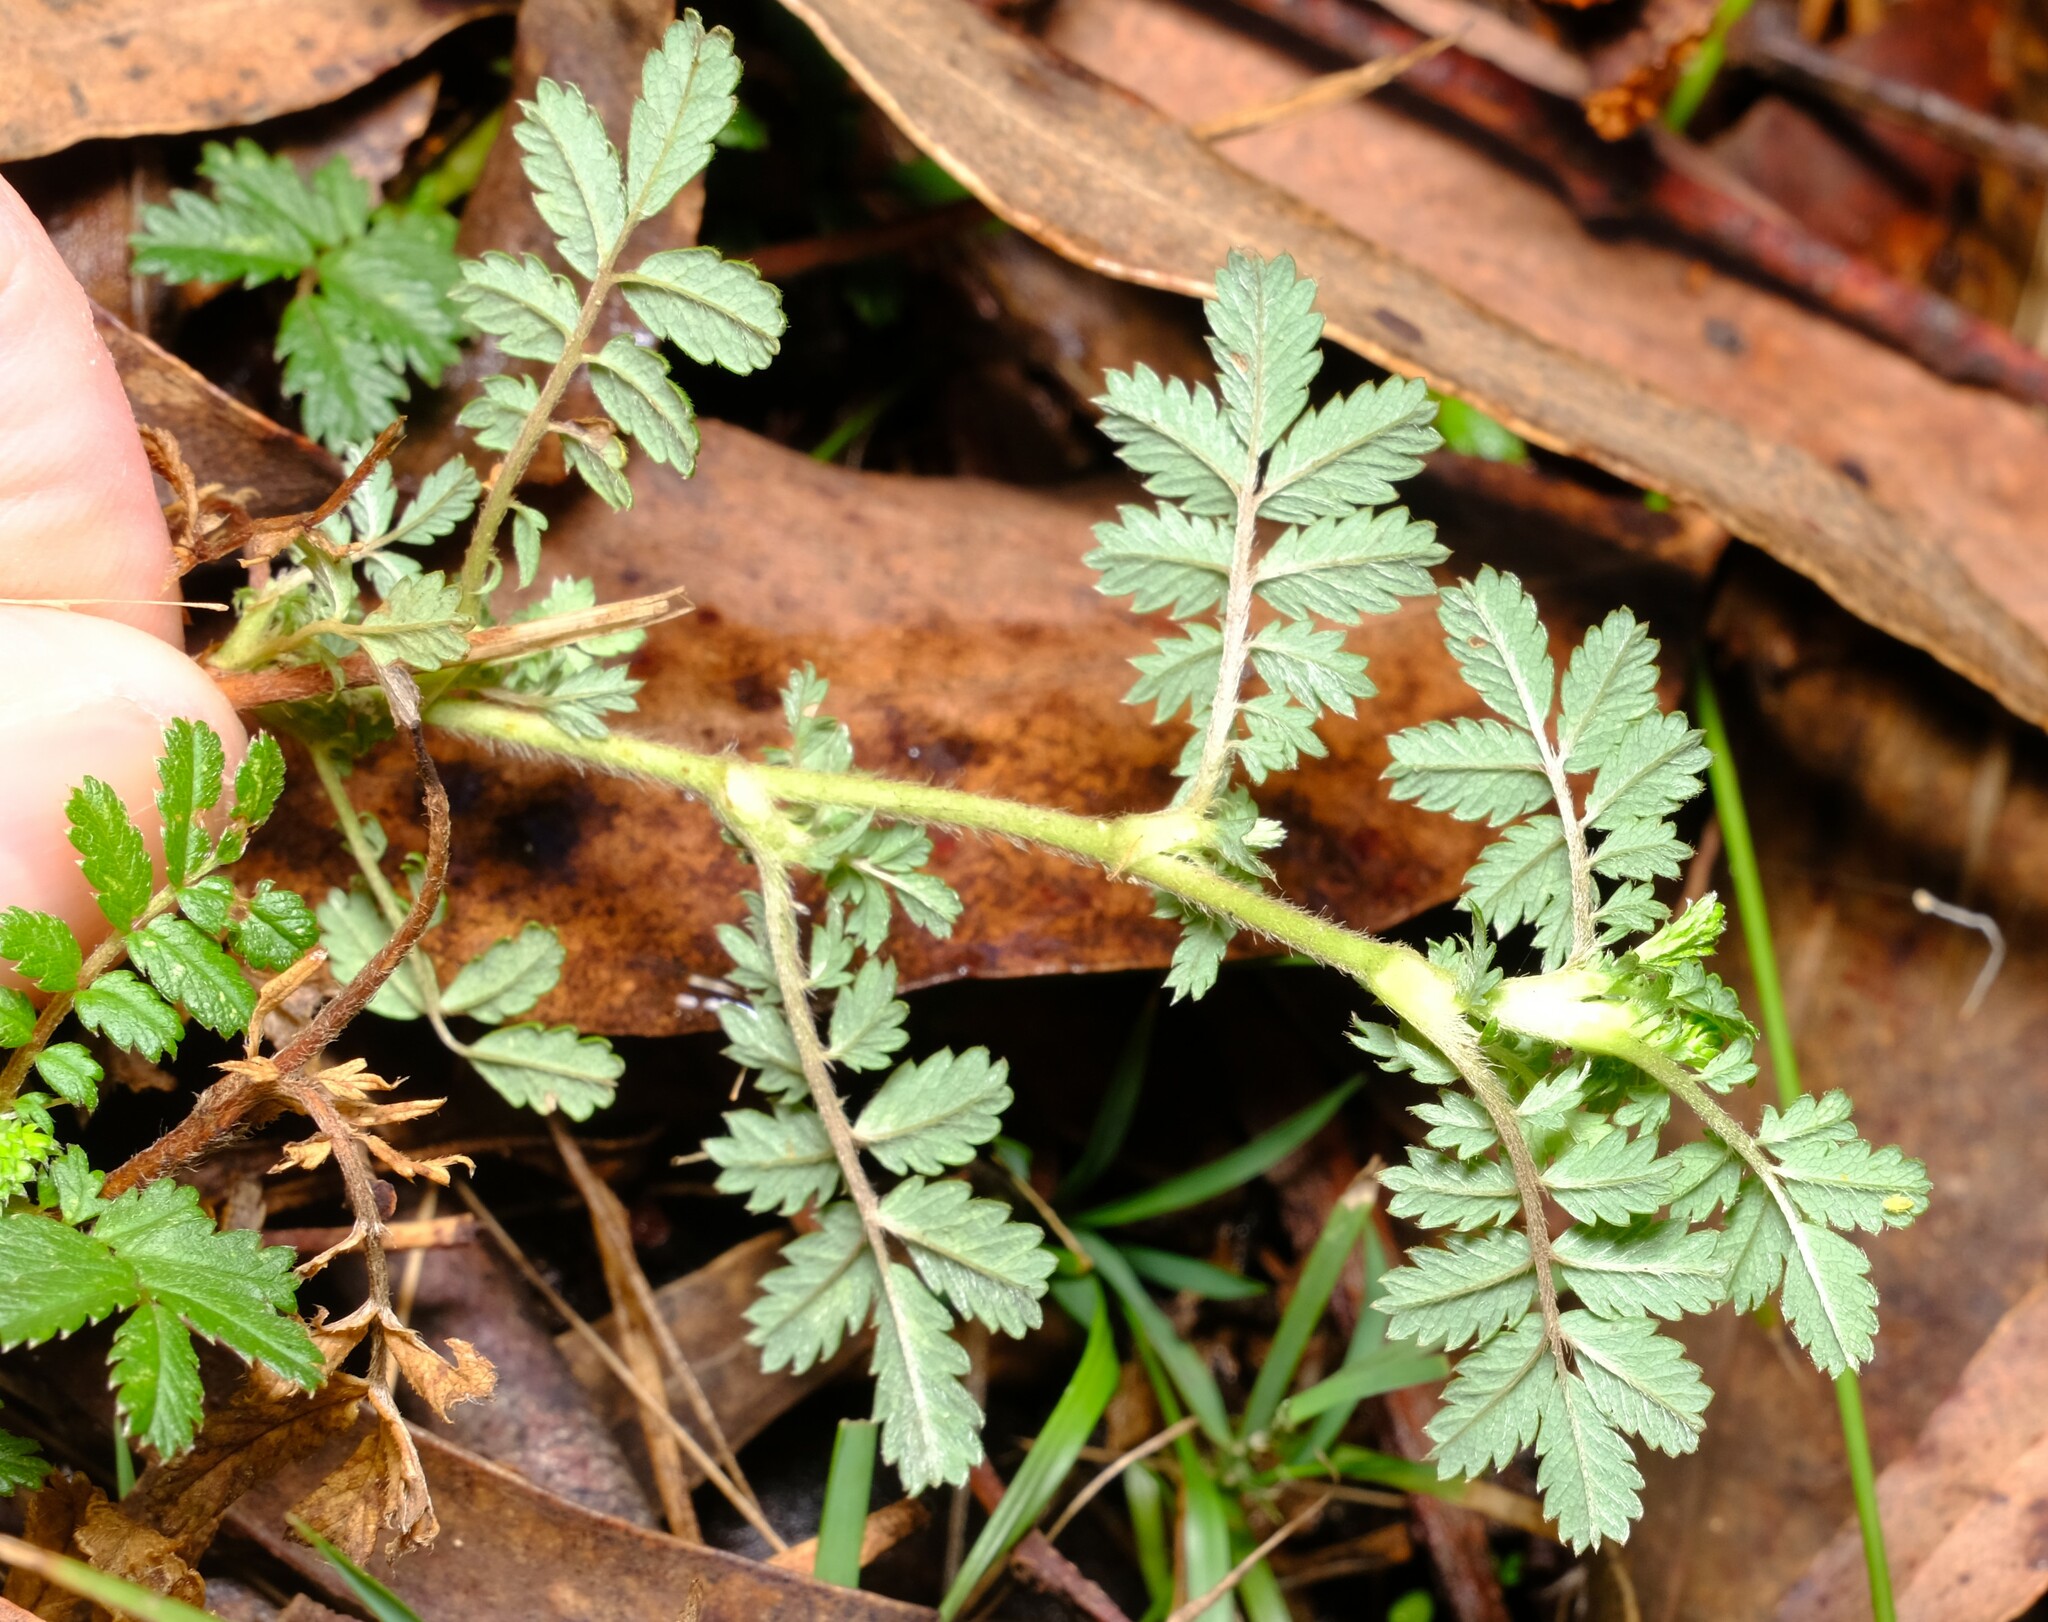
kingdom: Plantae
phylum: Tracheophyta
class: Magnoliopsida
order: Rosales
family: Rosaceae
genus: Acaena
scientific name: Acaena novae-zelandiae
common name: Pirri-pirri-bur
